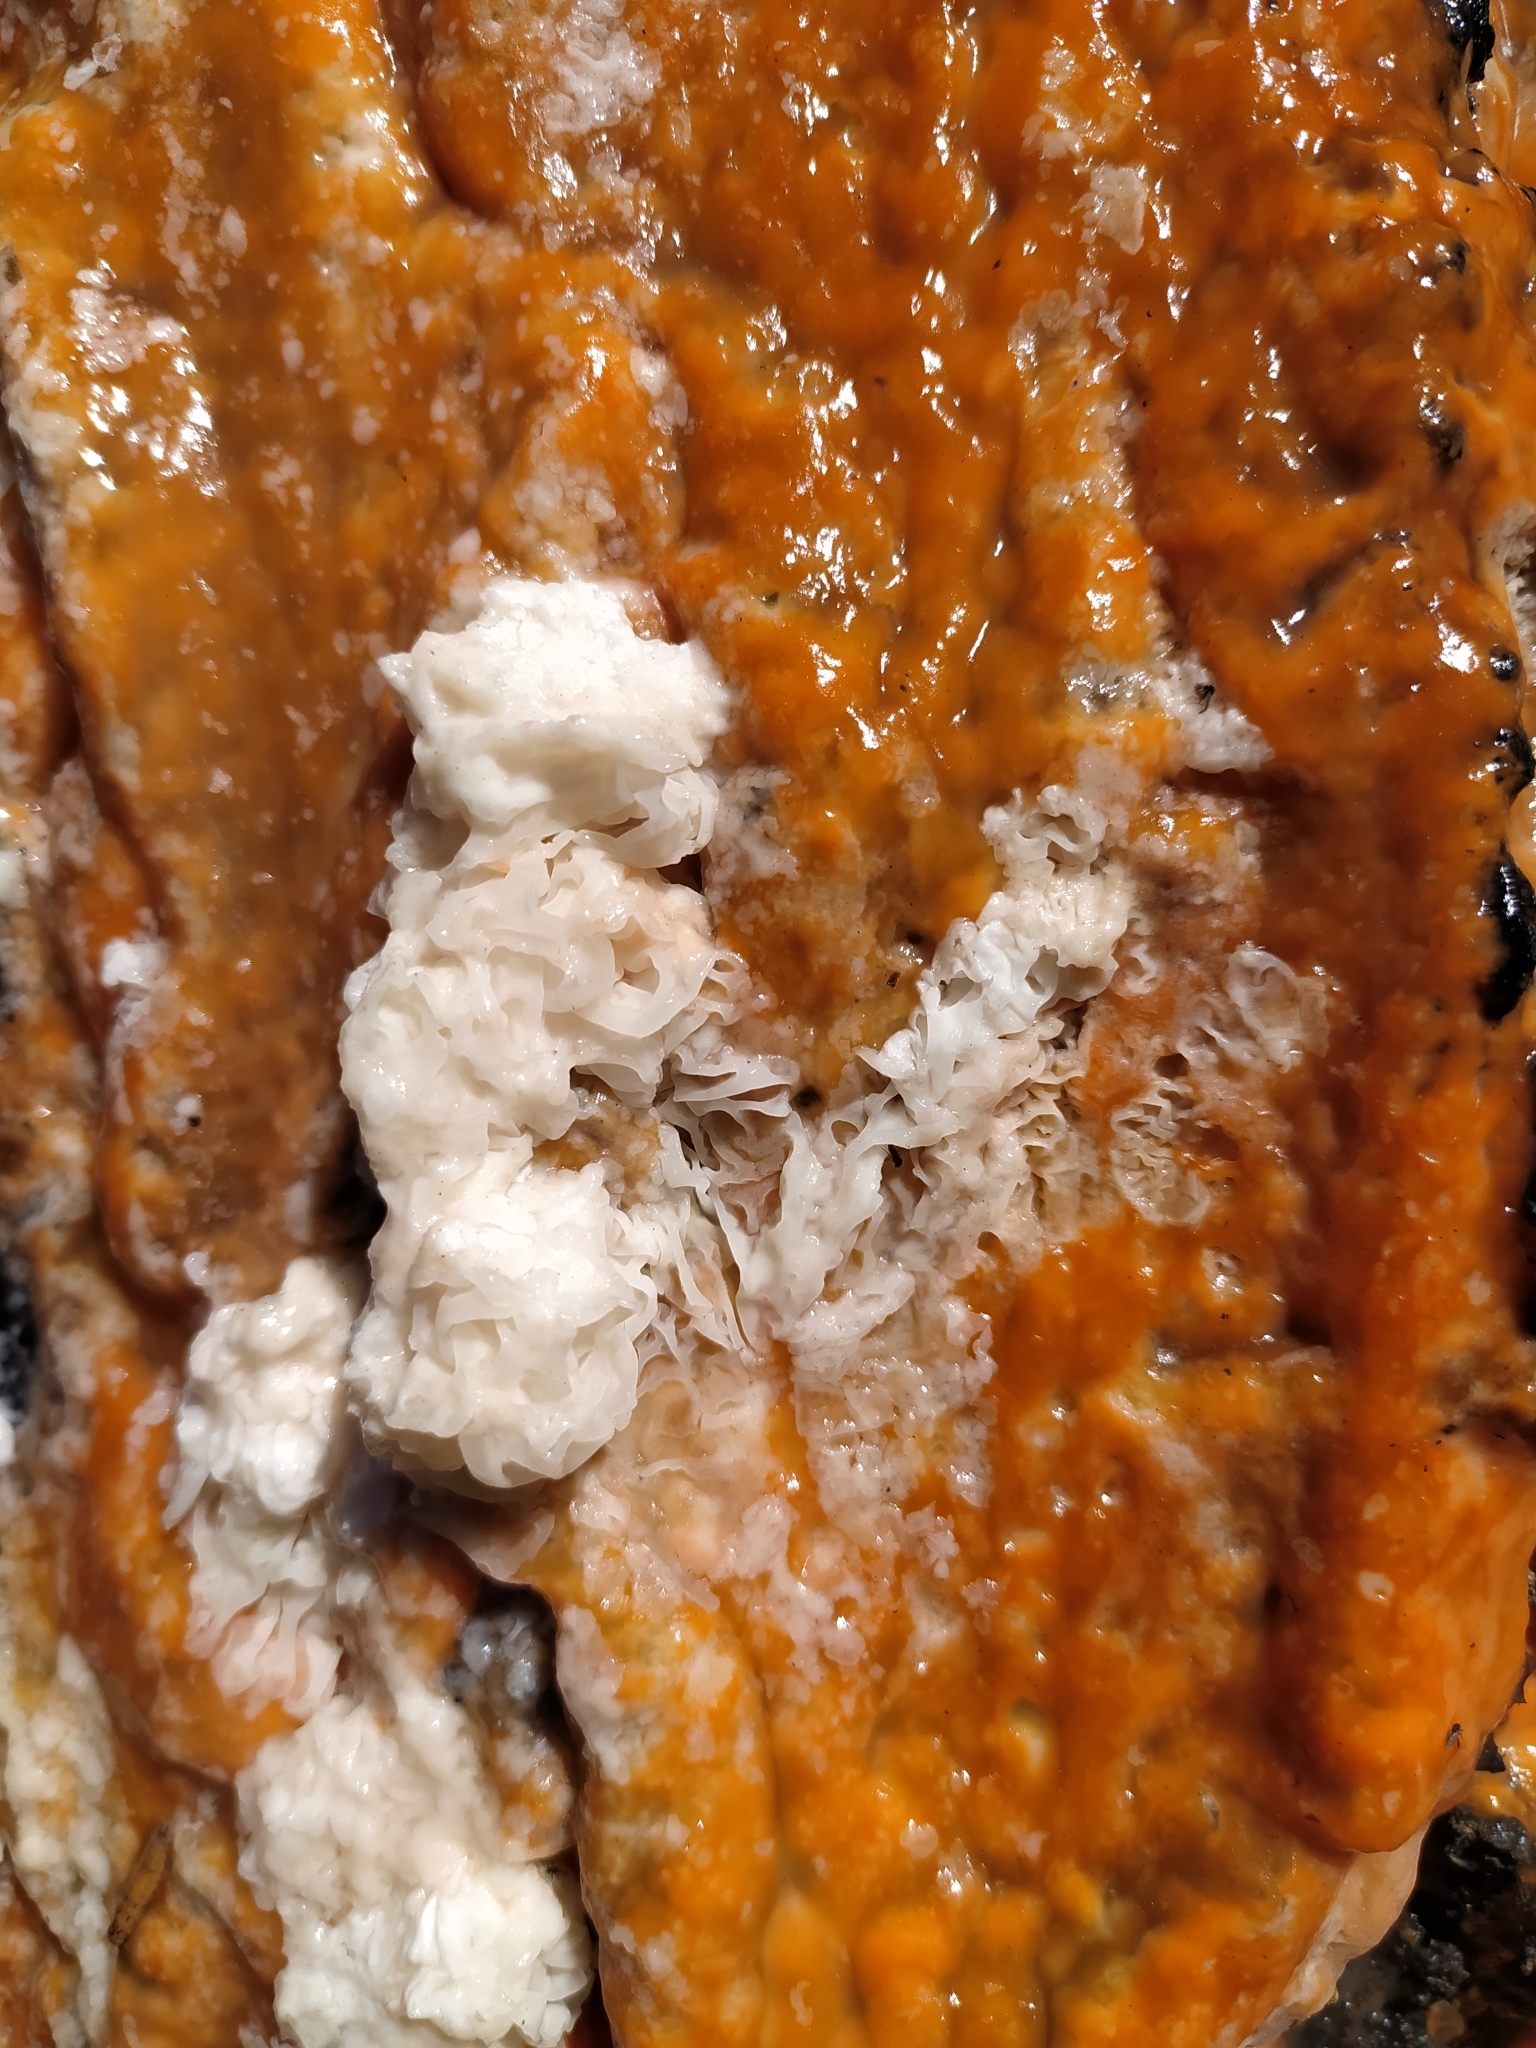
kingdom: Fungi
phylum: Ascomycota
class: Sordariomycetes
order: Hypocreales
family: Nectriaceae
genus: Fusicolla
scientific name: Fusicolla merismoides
